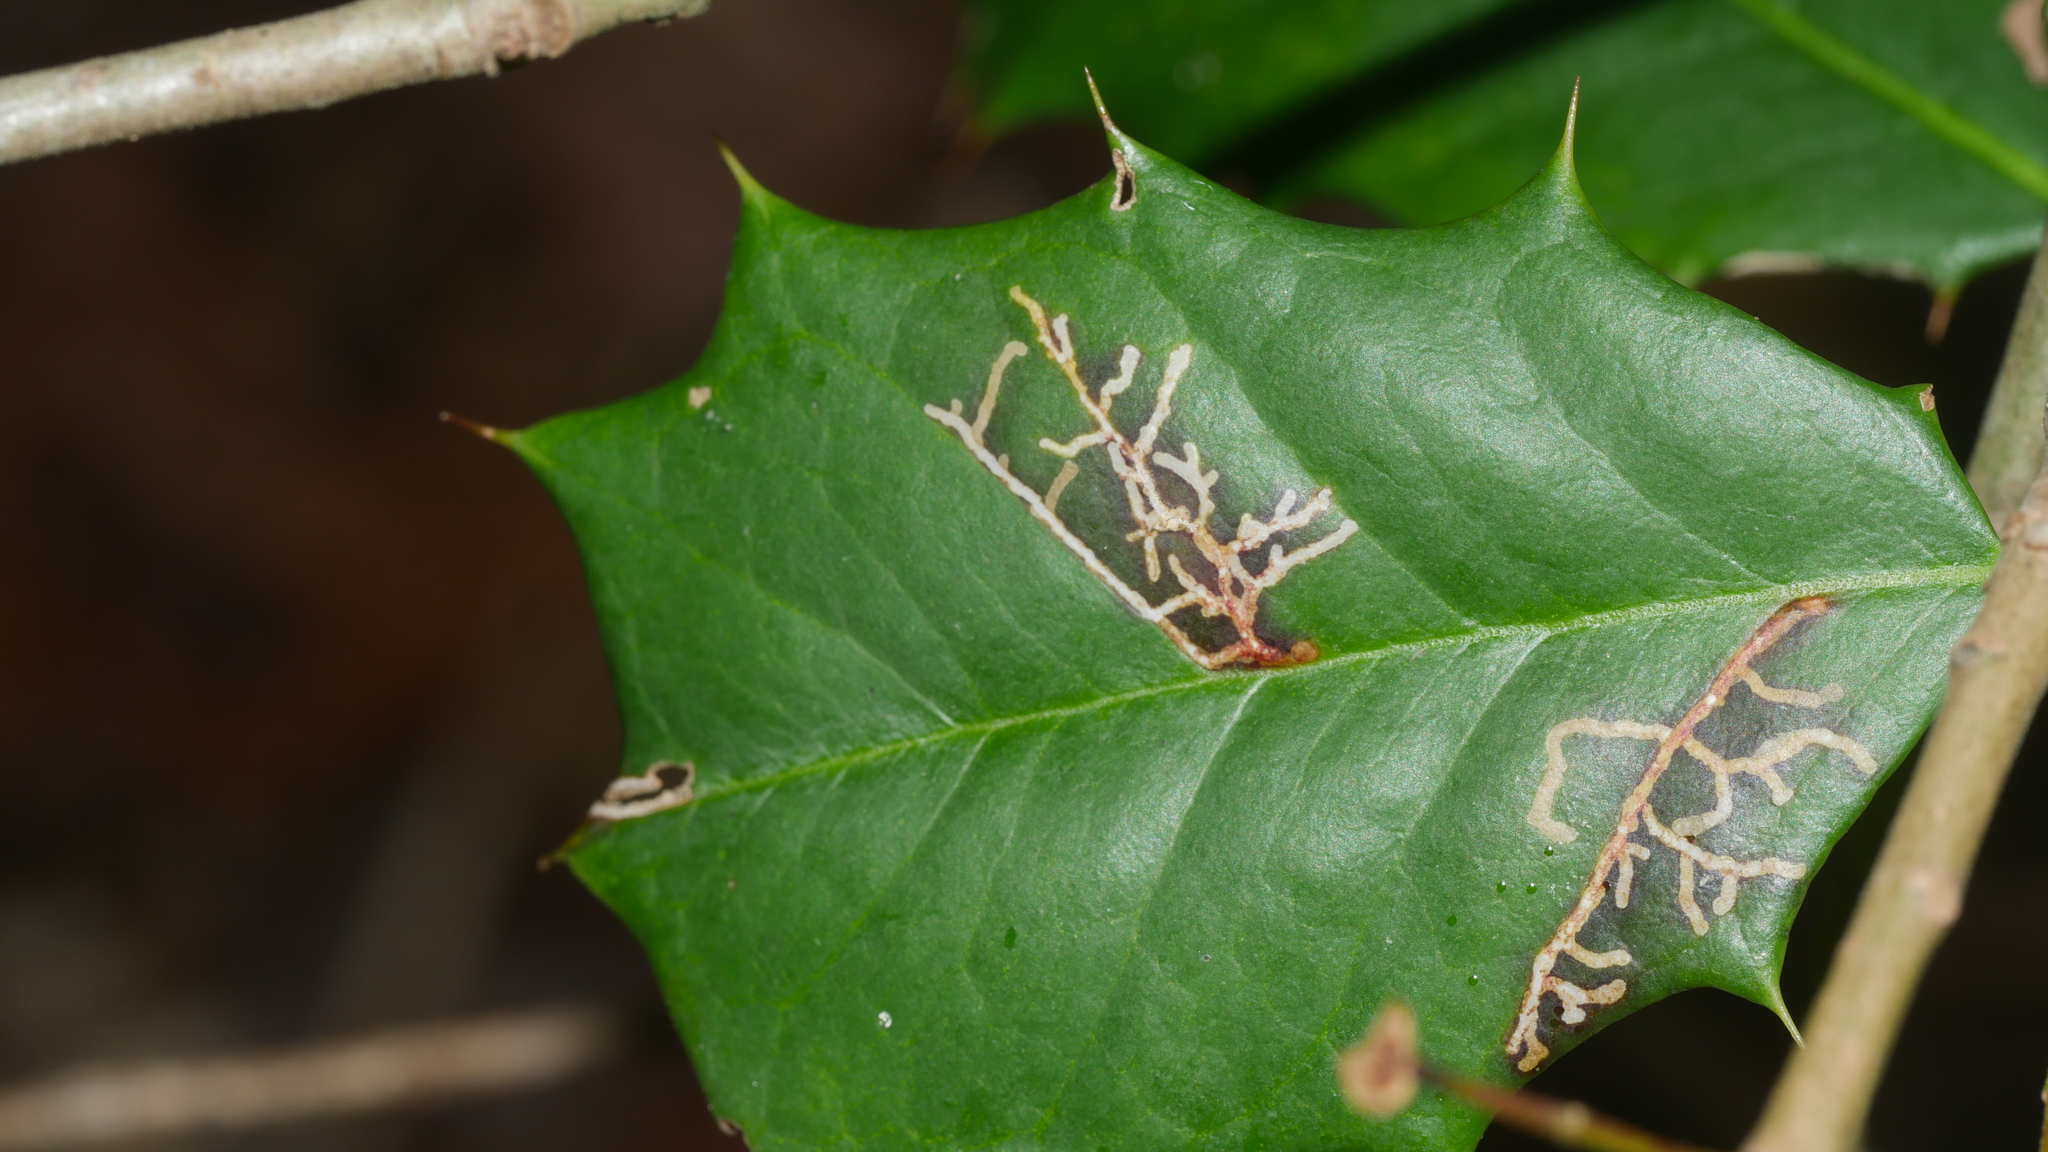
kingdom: Animalia
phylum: Arthropoda
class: Insecta
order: Lepidoptera
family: Tortricidae
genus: Rhopobota
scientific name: Rhopobota
